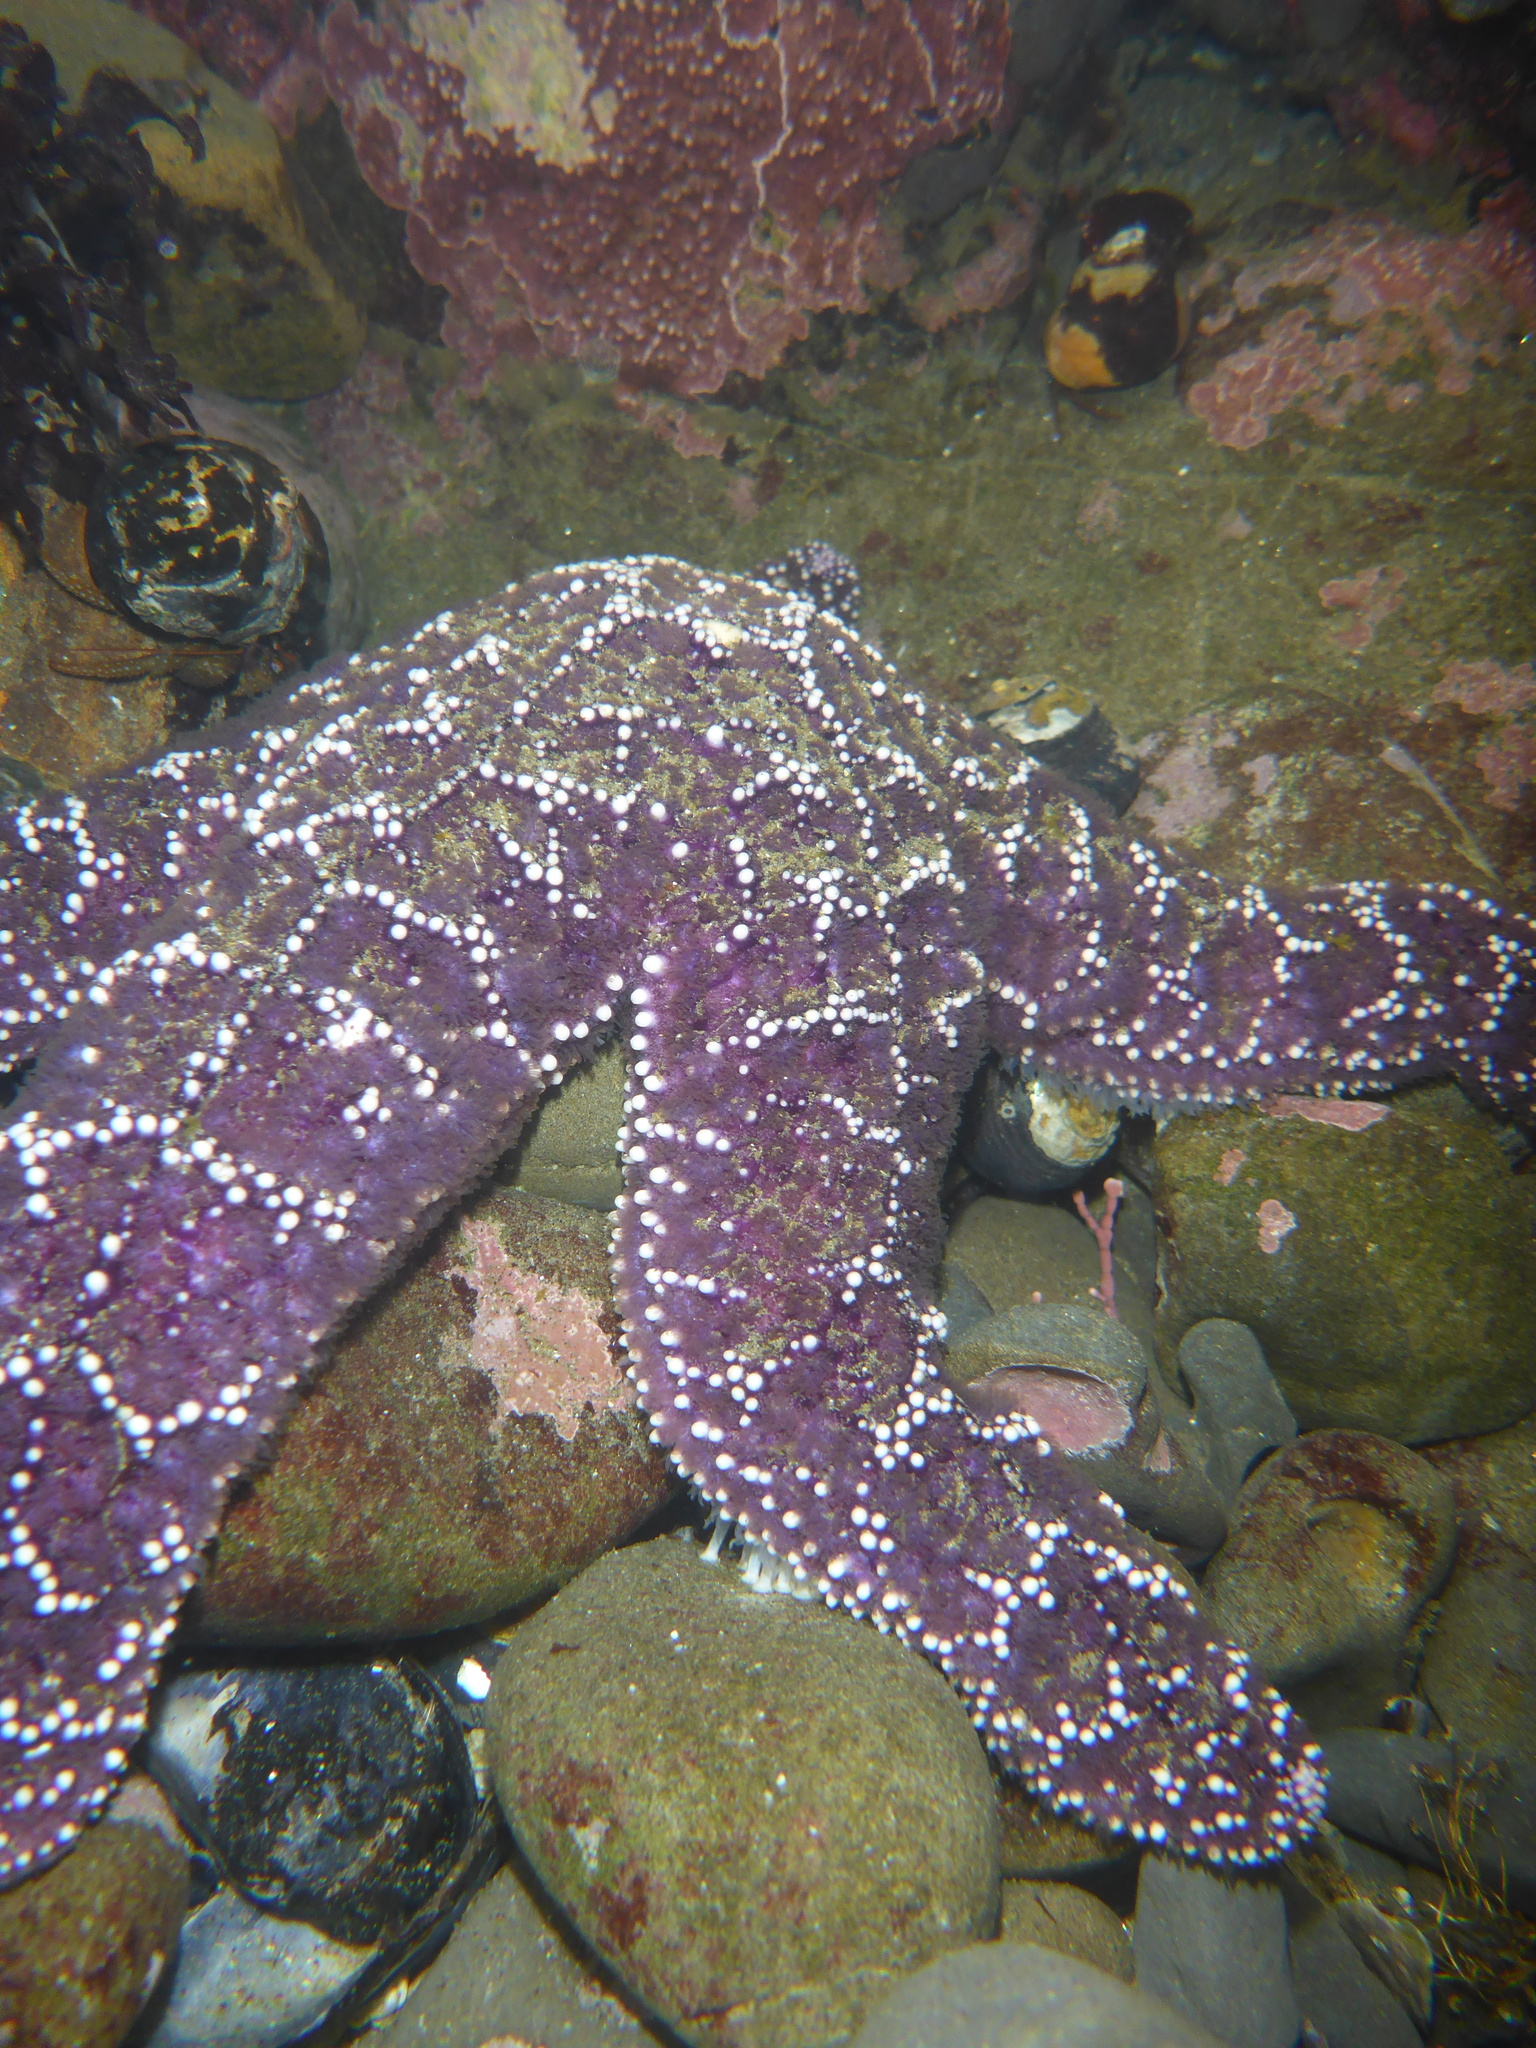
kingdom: Animalia
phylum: Echinodermata
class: Asteroidea
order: Forcipulatida
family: Asteriidae
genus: Pisaster
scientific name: Pisaster ochraceus
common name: Ochre stars
